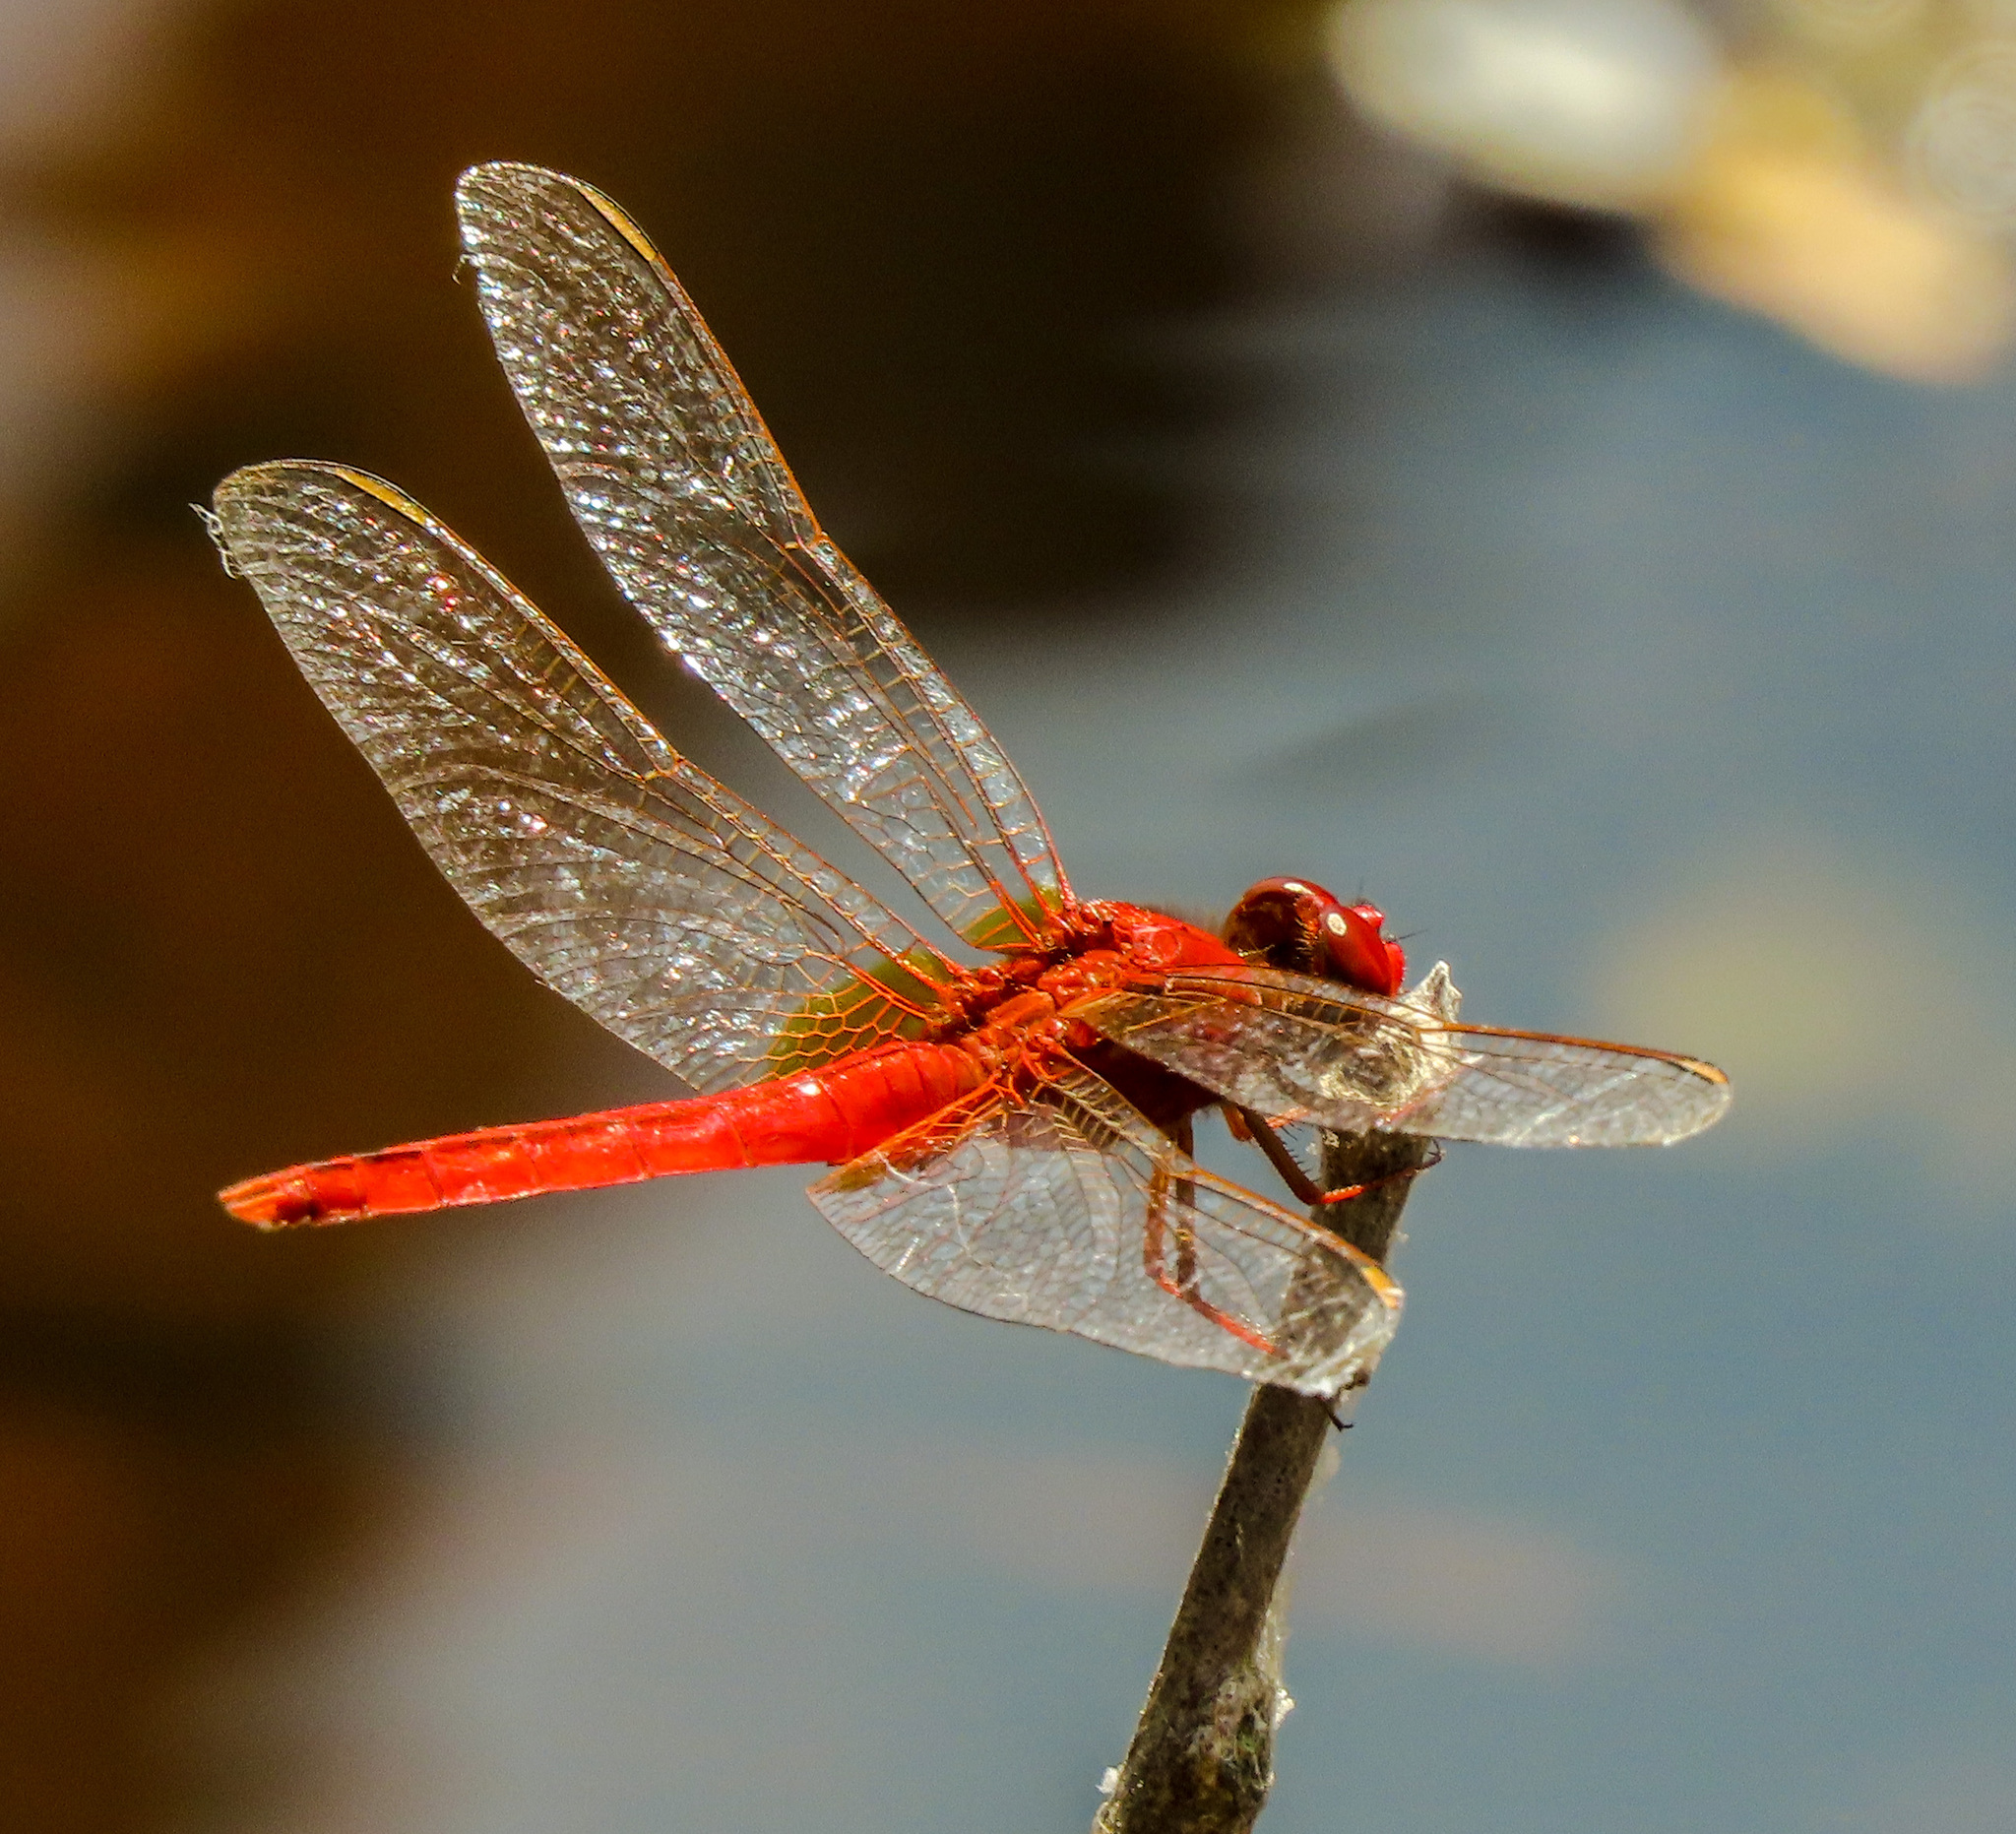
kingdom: Animalia
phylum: Arthropoda
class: Insecta
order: Odonata
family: Libellulidae
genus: Crocothemis
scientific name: Crocothemis servilia
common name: Scarlet skimmer
